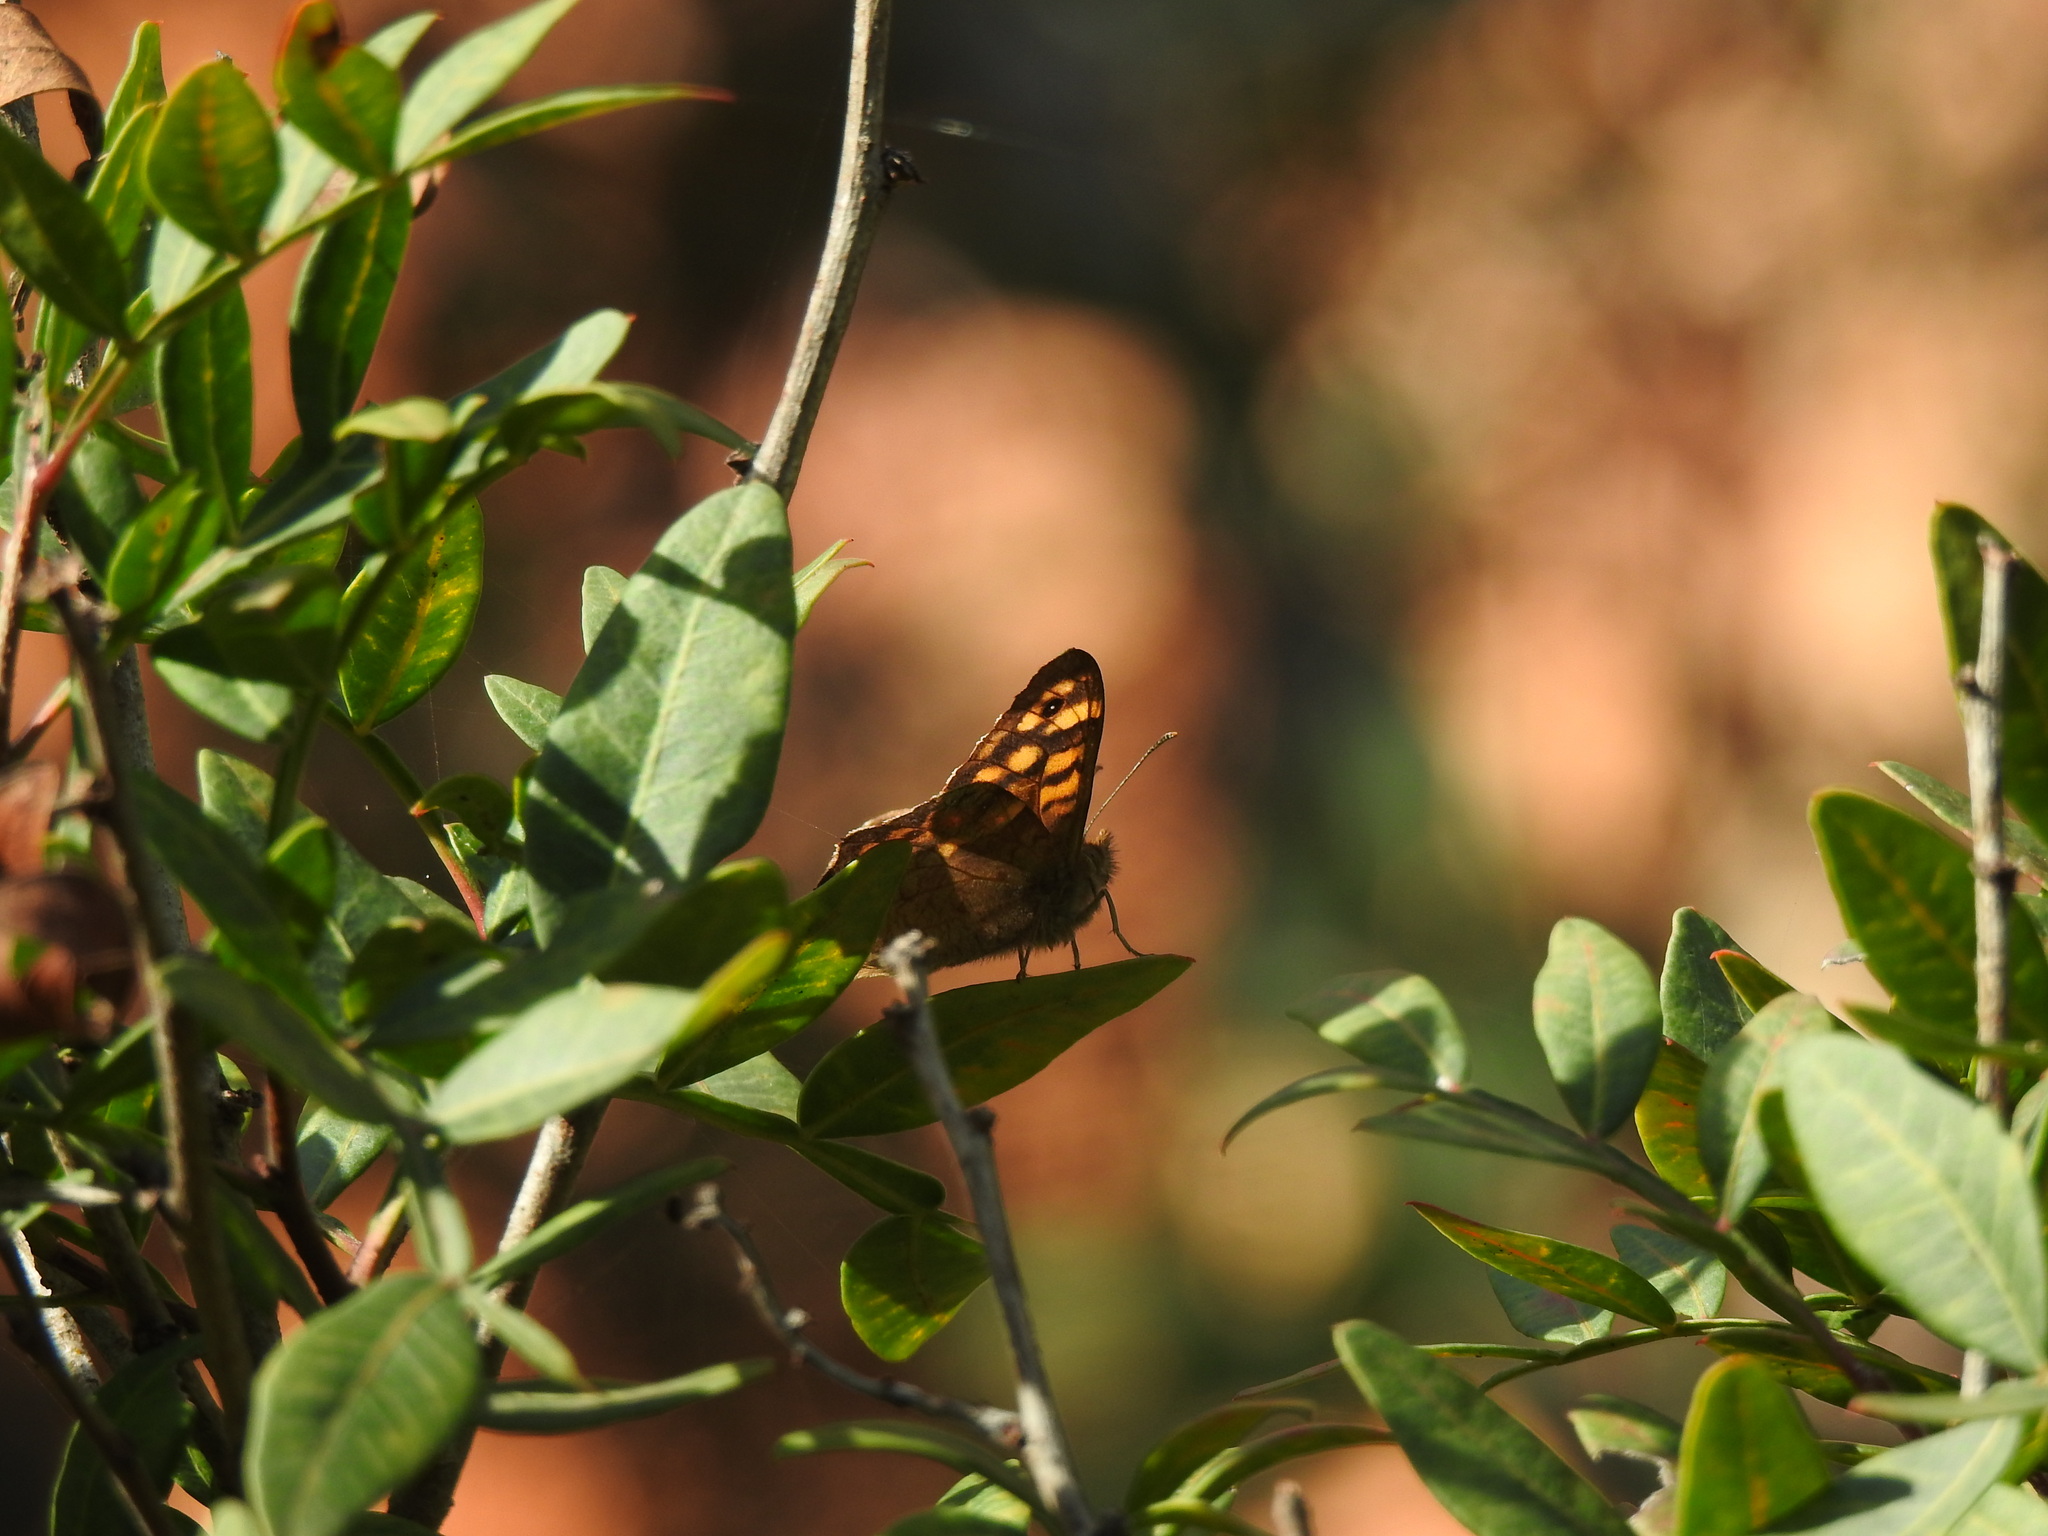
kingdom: Animalia
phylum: Arthropoda
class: Insecta
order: Lepidoptera
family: Nymphalidae
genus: Pararge
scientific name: Pararge aegeria
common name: Speckled wood
